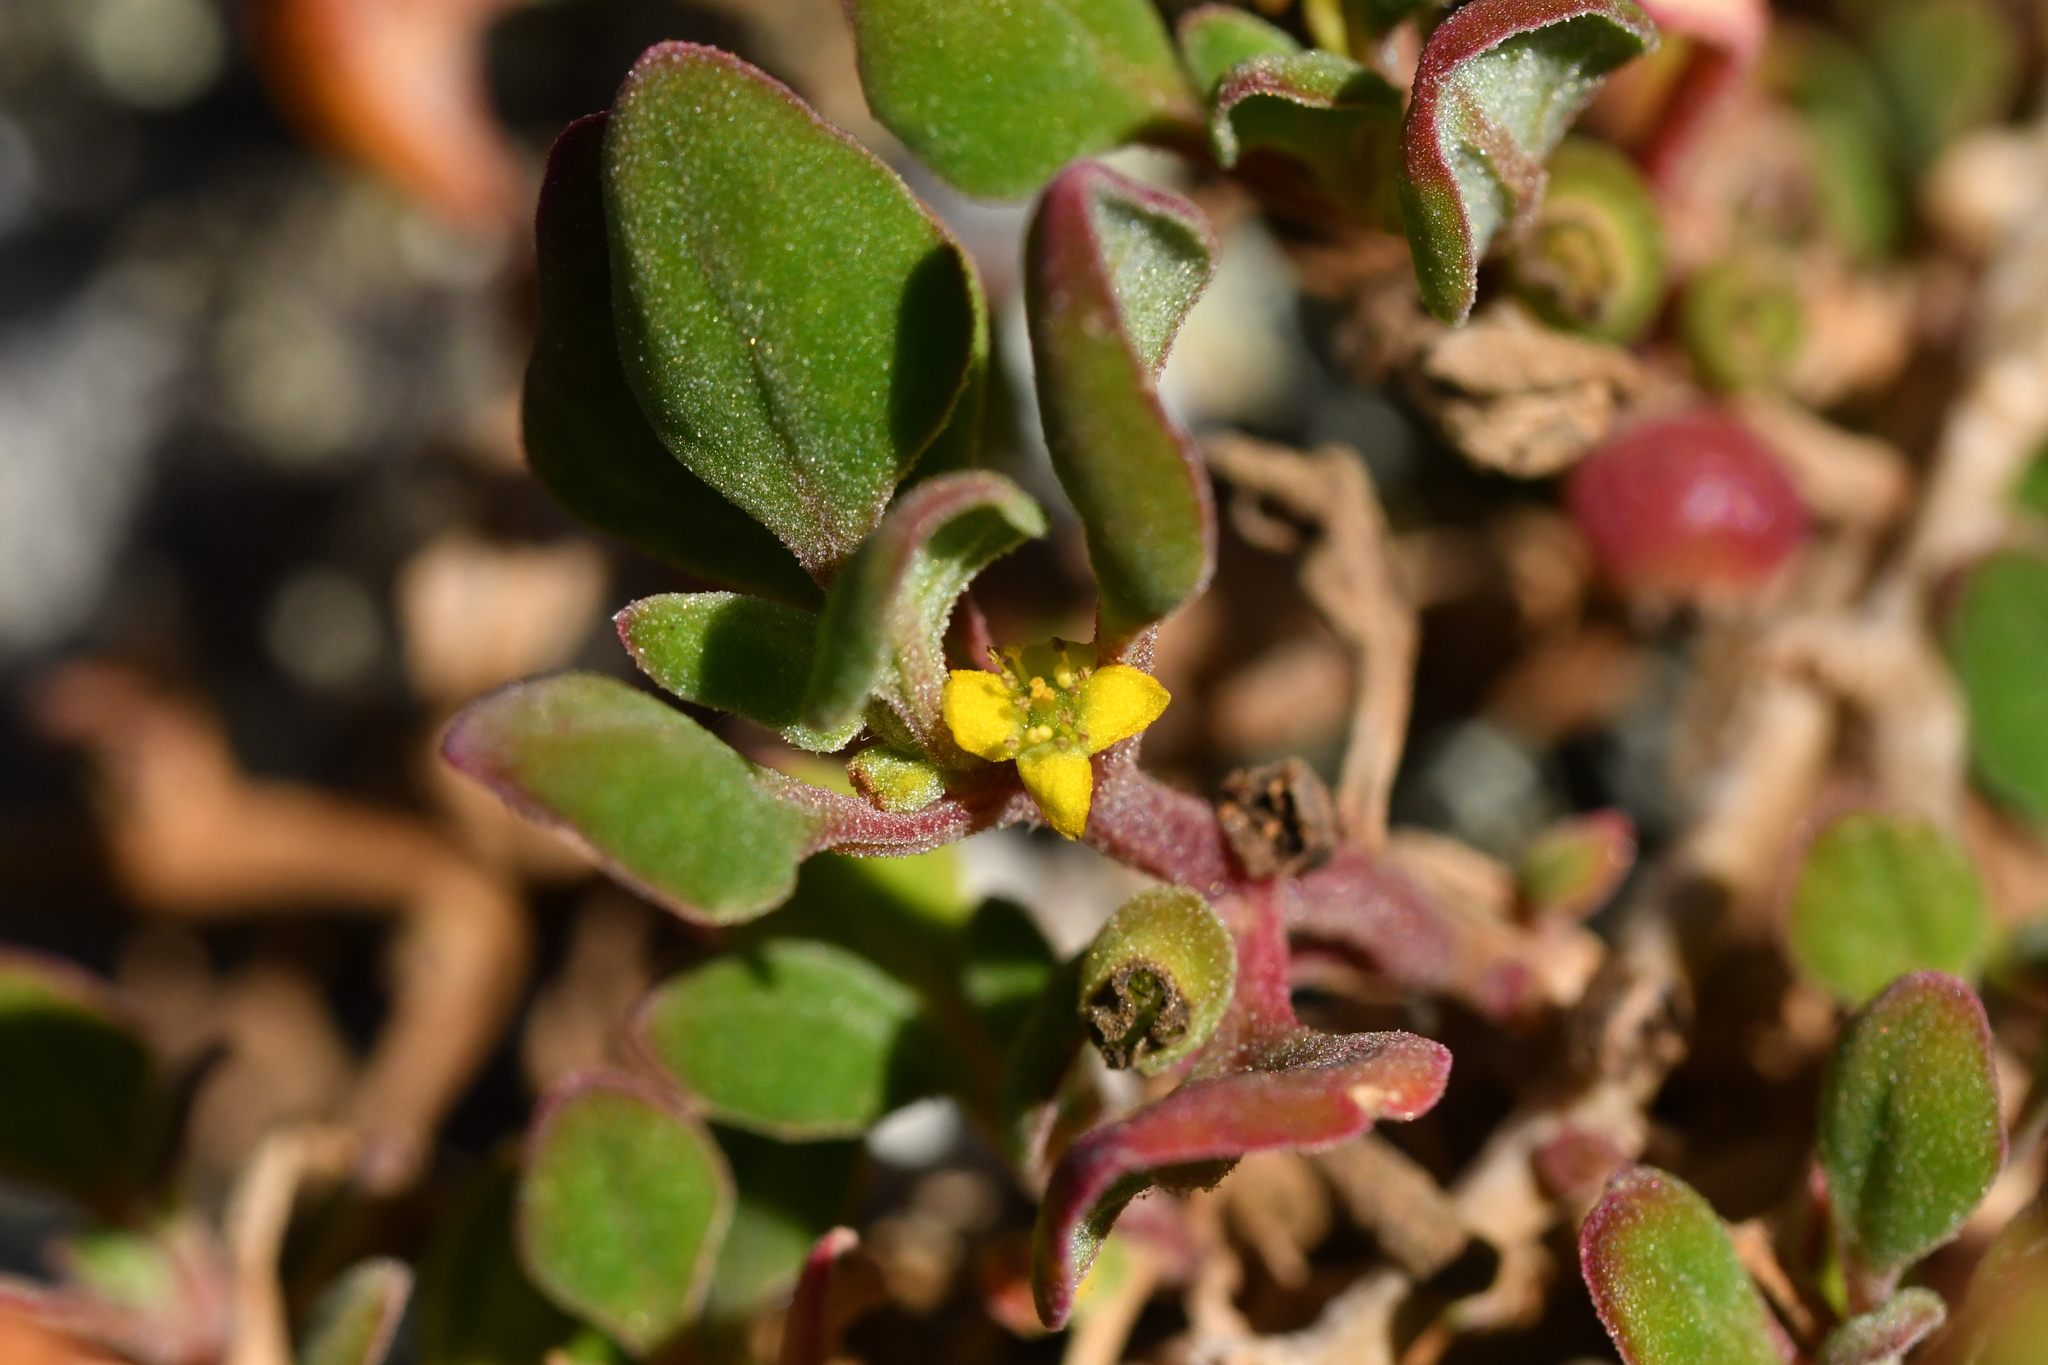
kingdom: Plantae
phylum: Tracheophyta
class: Magnoliopsida
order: Caryophyllales
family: Aizoaceae
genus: Tetragonia
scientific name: Tetragonia implexicoma
